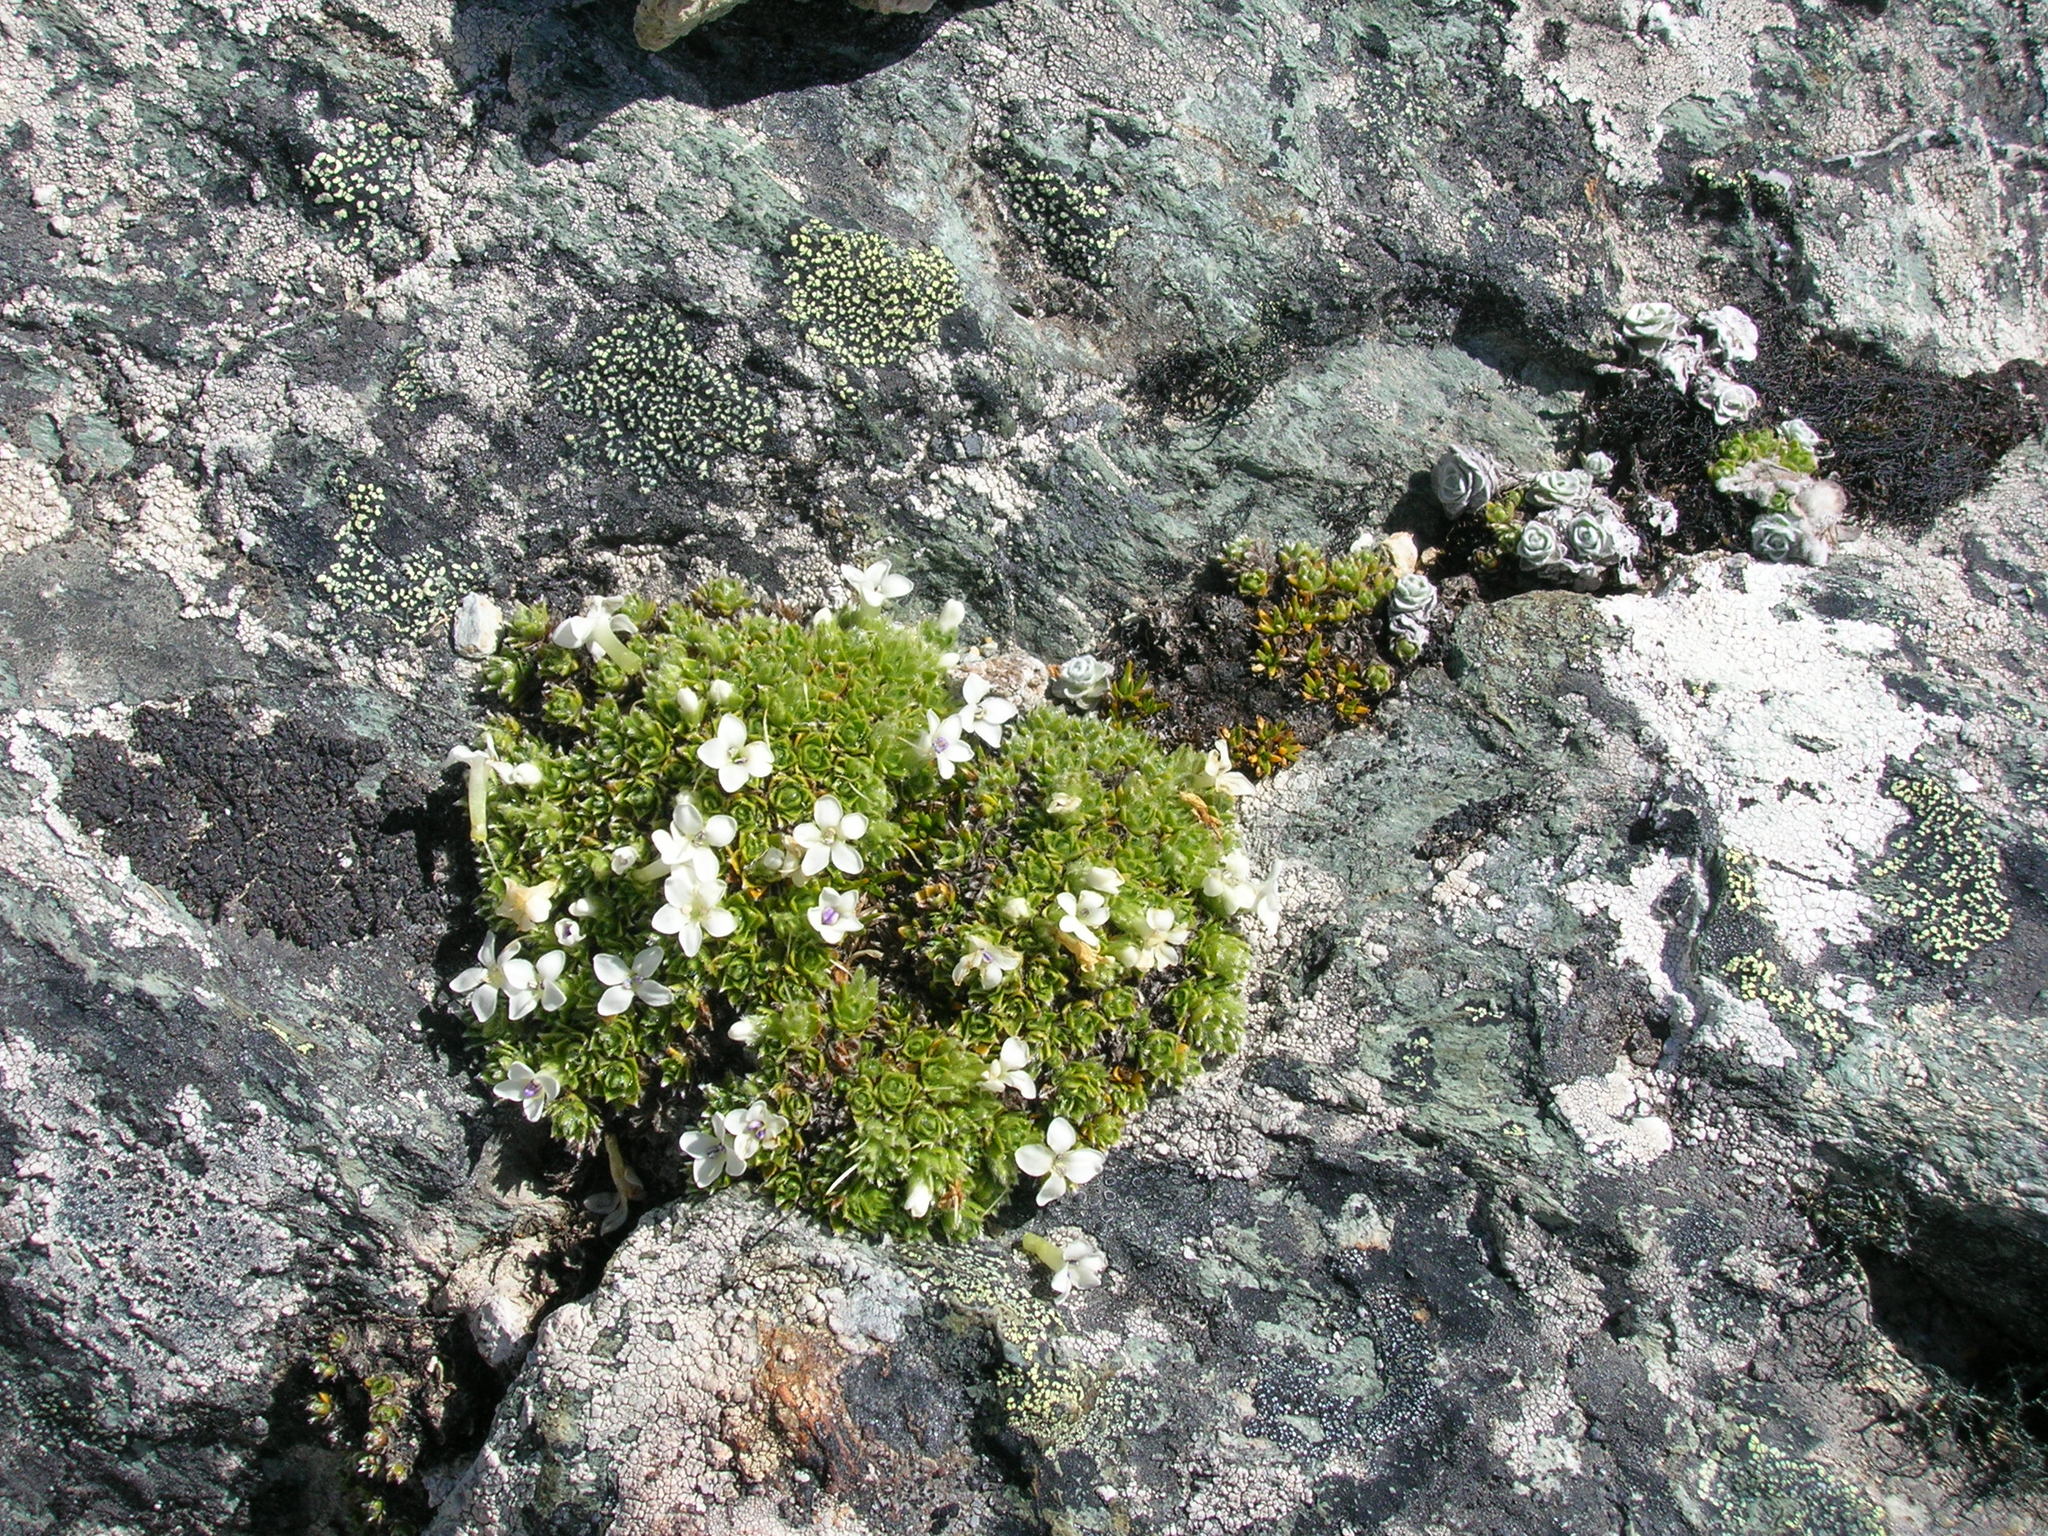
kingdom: Plantae
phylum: Tracheophyta
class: Magnoliopsida
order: Lamiales
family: Plantaginaceae
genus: Veronica
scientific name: Veronica ciliolata
